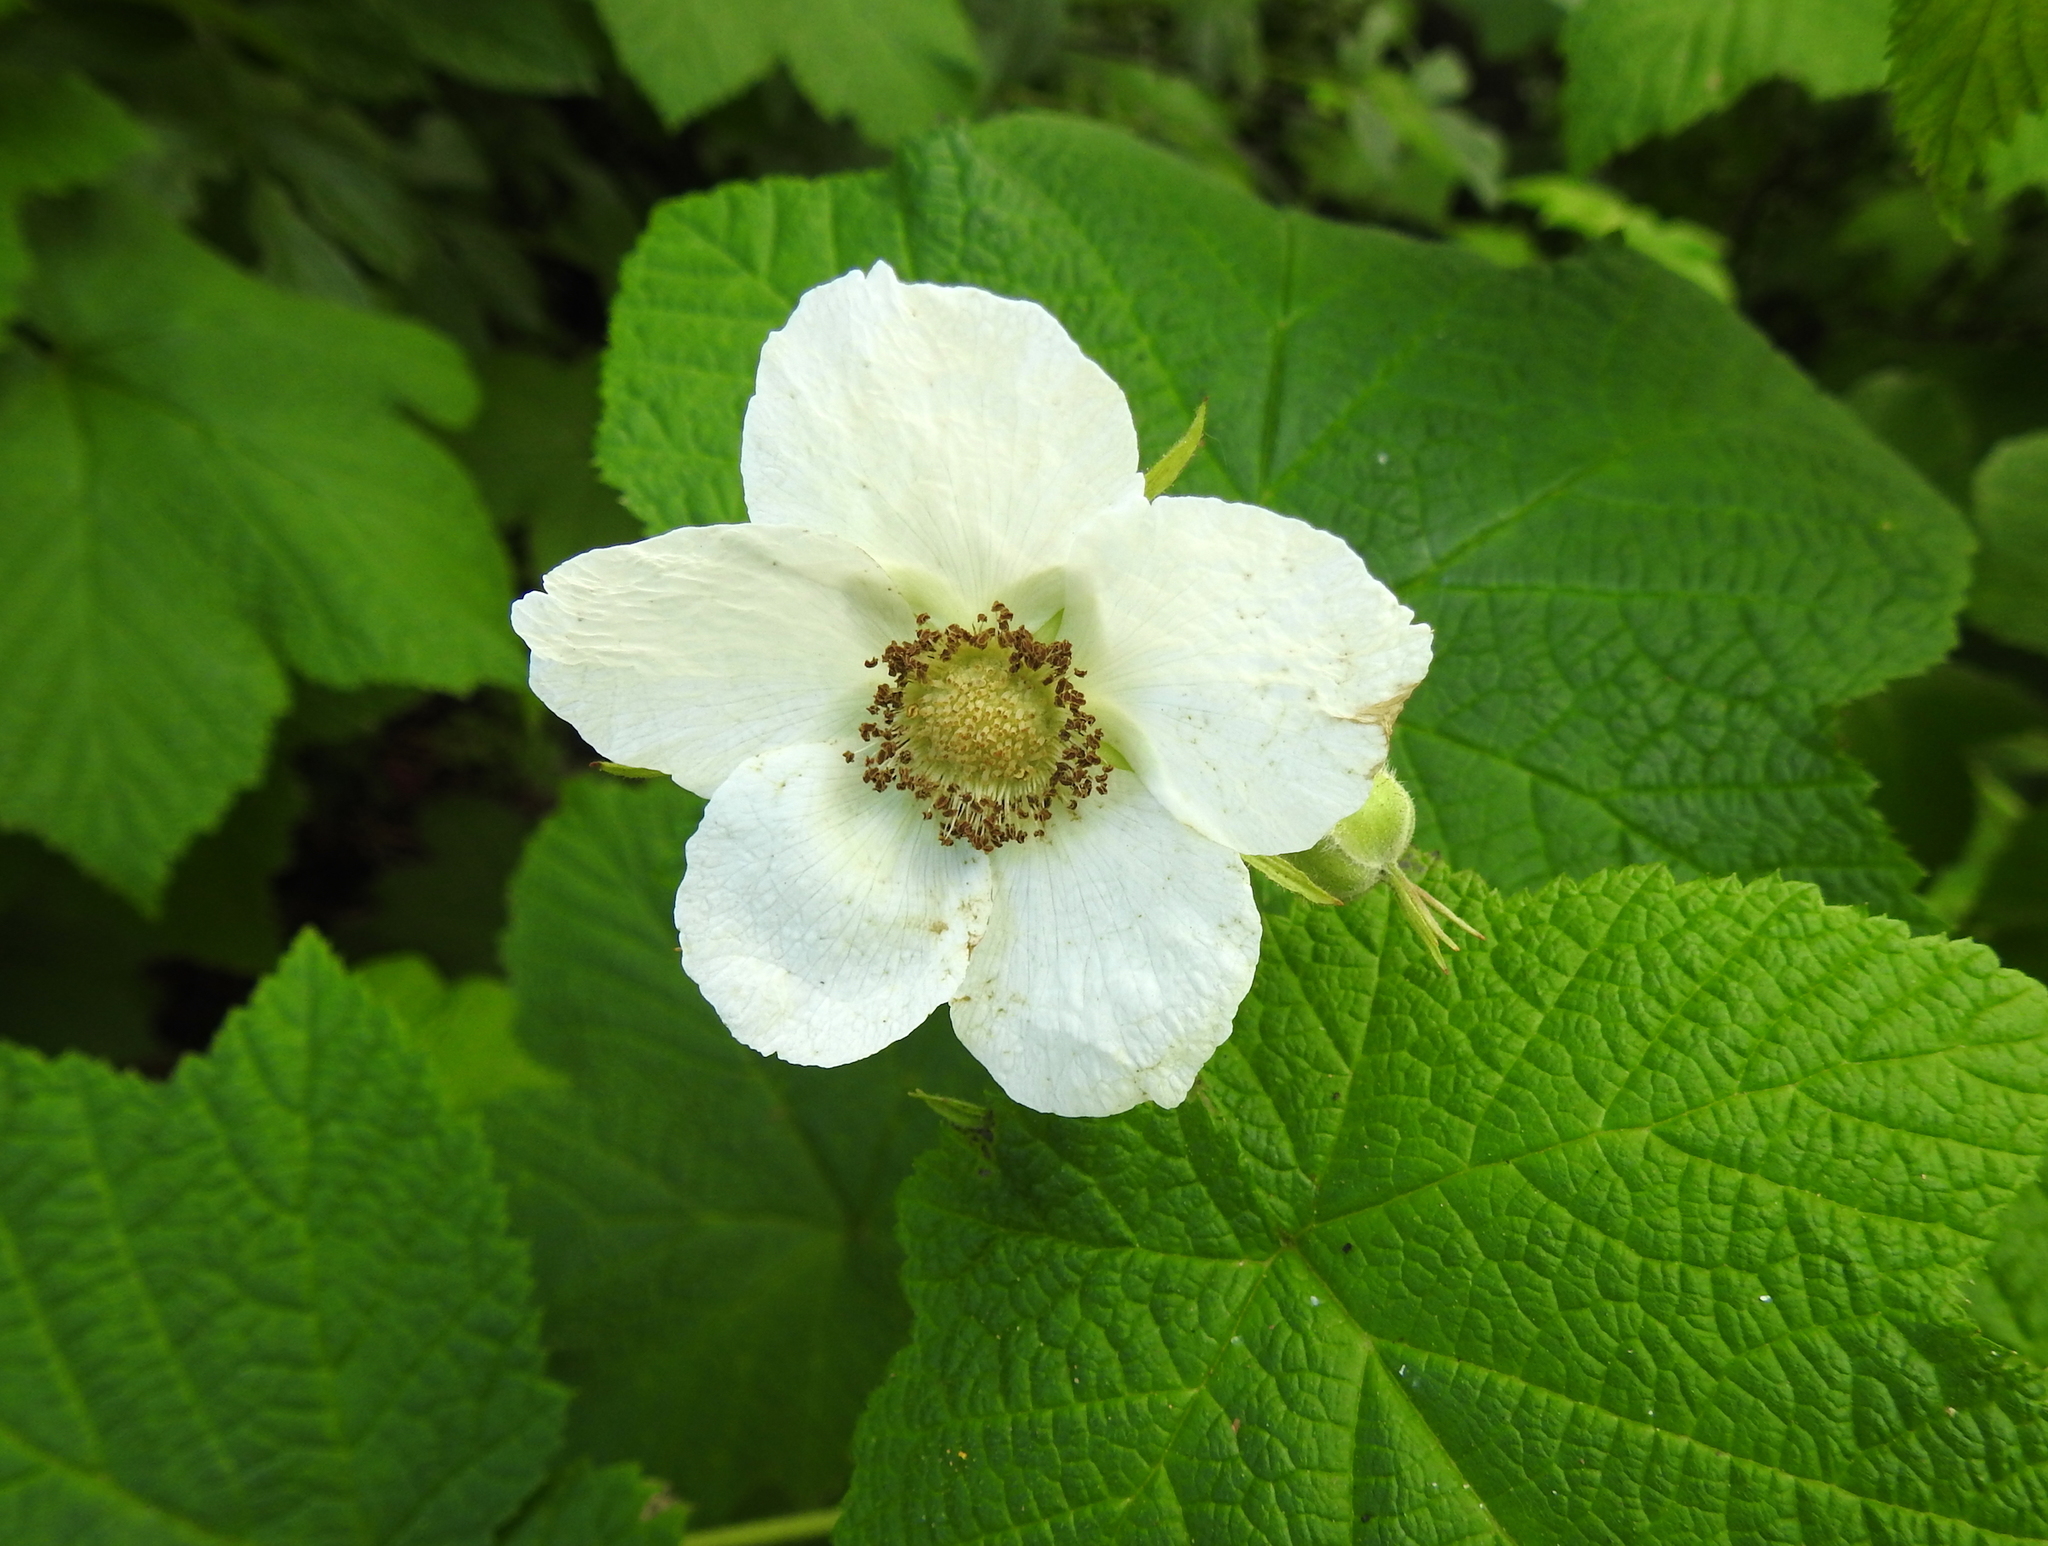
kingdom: Plantae
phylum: Tracheophyta
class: Magnoliopsida
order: Rosales
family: Rosaceae
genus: Rubus
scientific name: Rubus parviflorus
